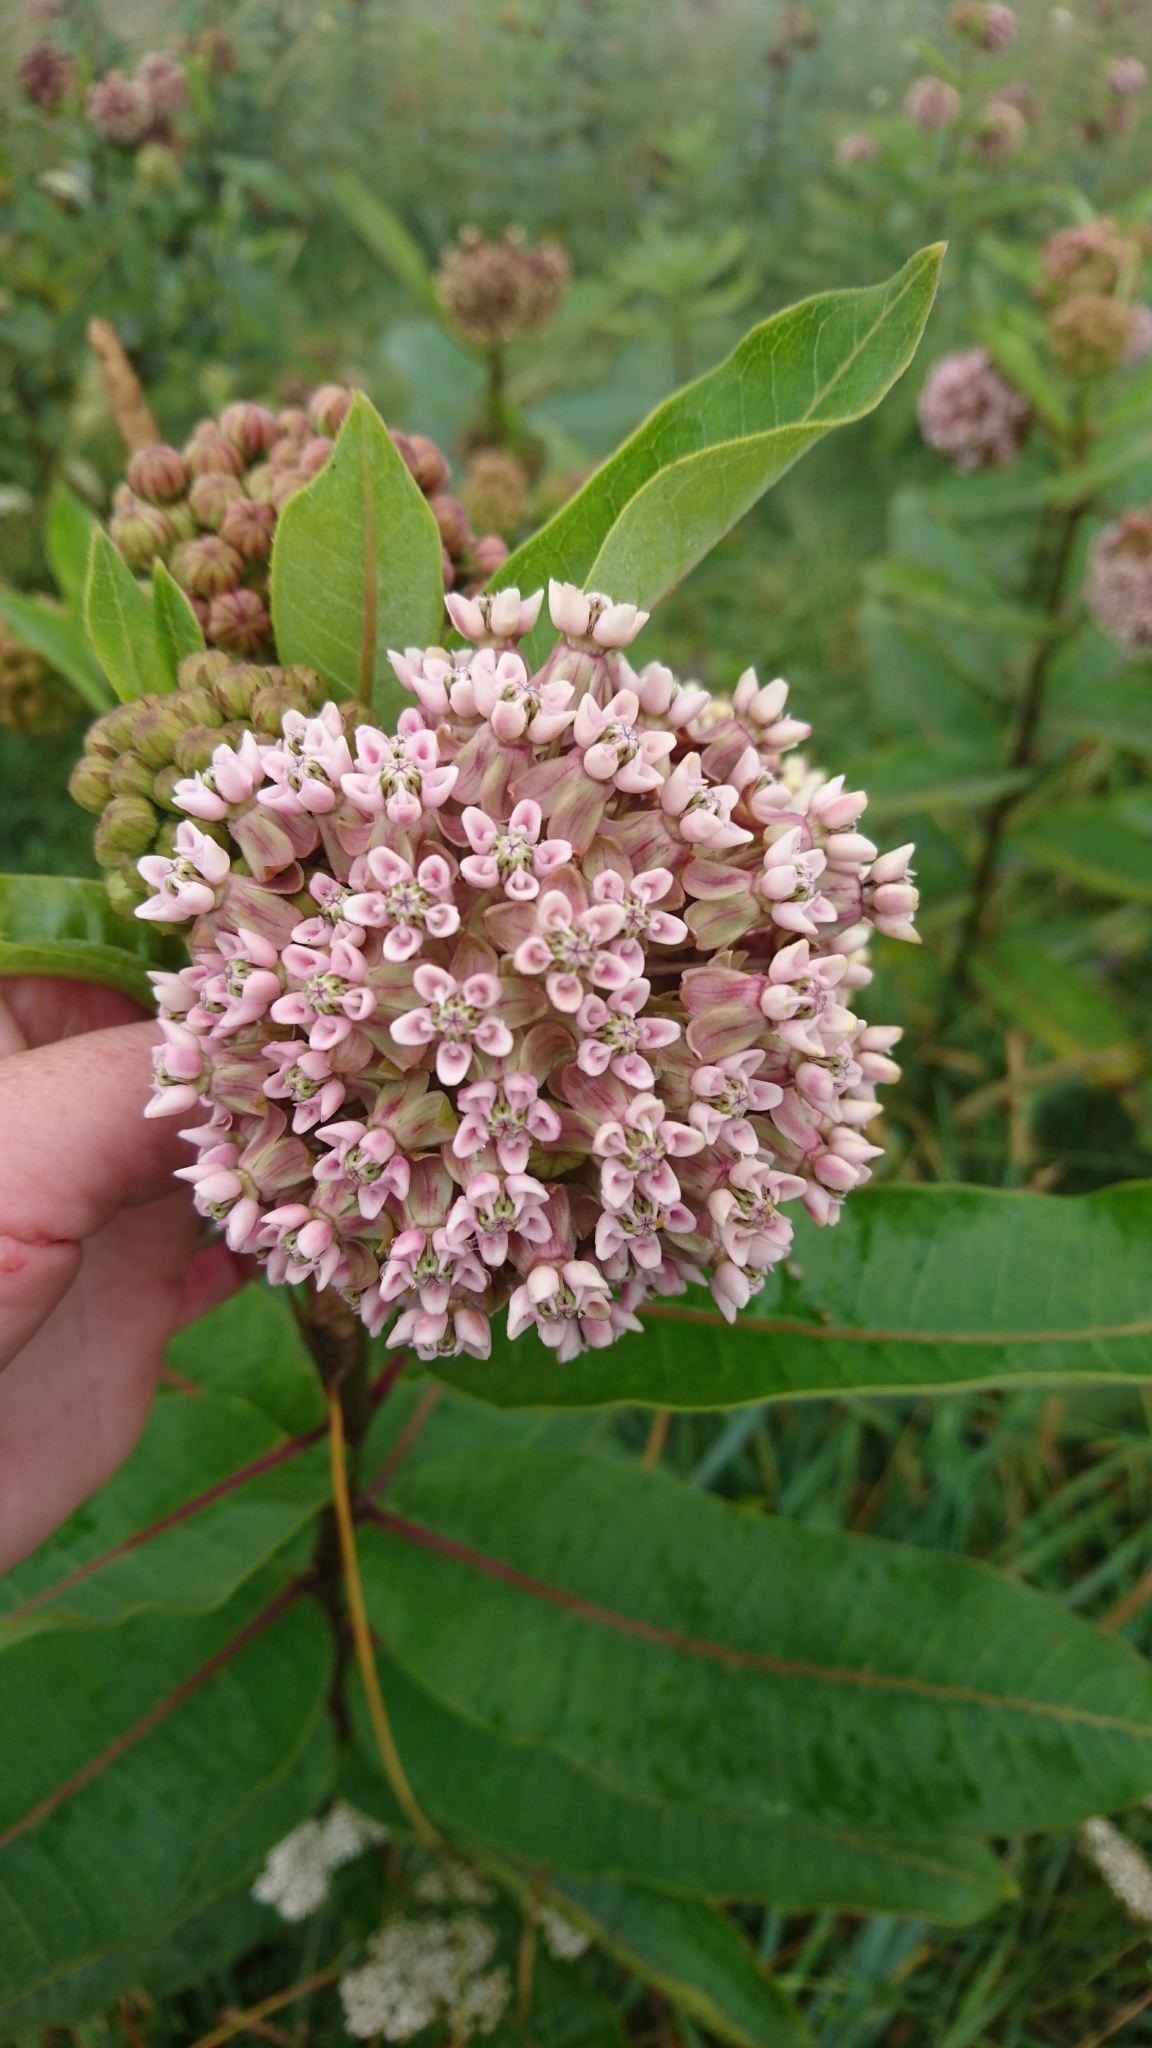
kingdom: Plantae
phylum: Tracheophyta
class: Magnoliopsida
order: Gentianales
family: Apocynaceae
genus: Asclepias
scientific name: Asclepias syriaca
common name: Common milkweed
